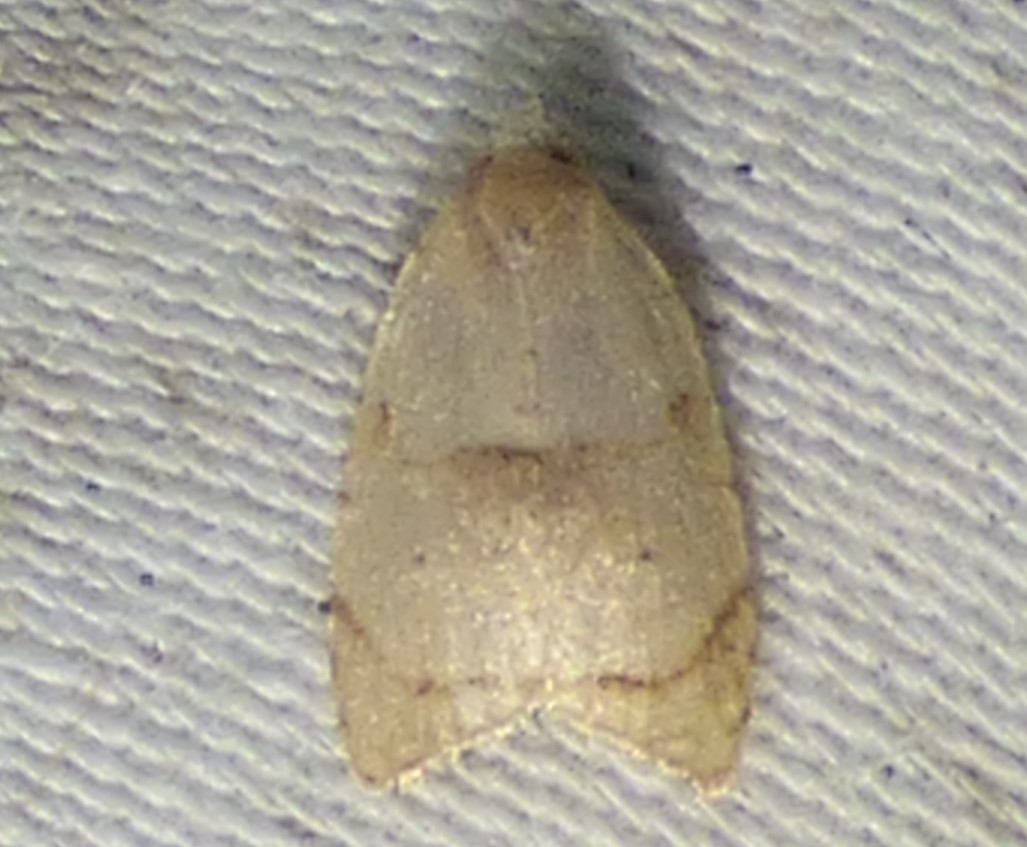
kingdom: Animalia
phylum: Arthropoda
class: Insecta
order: Lepidoptera
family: Tortricidae
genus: Coelostathma
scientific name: Coelostathma discopunctana
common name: Batman moth
